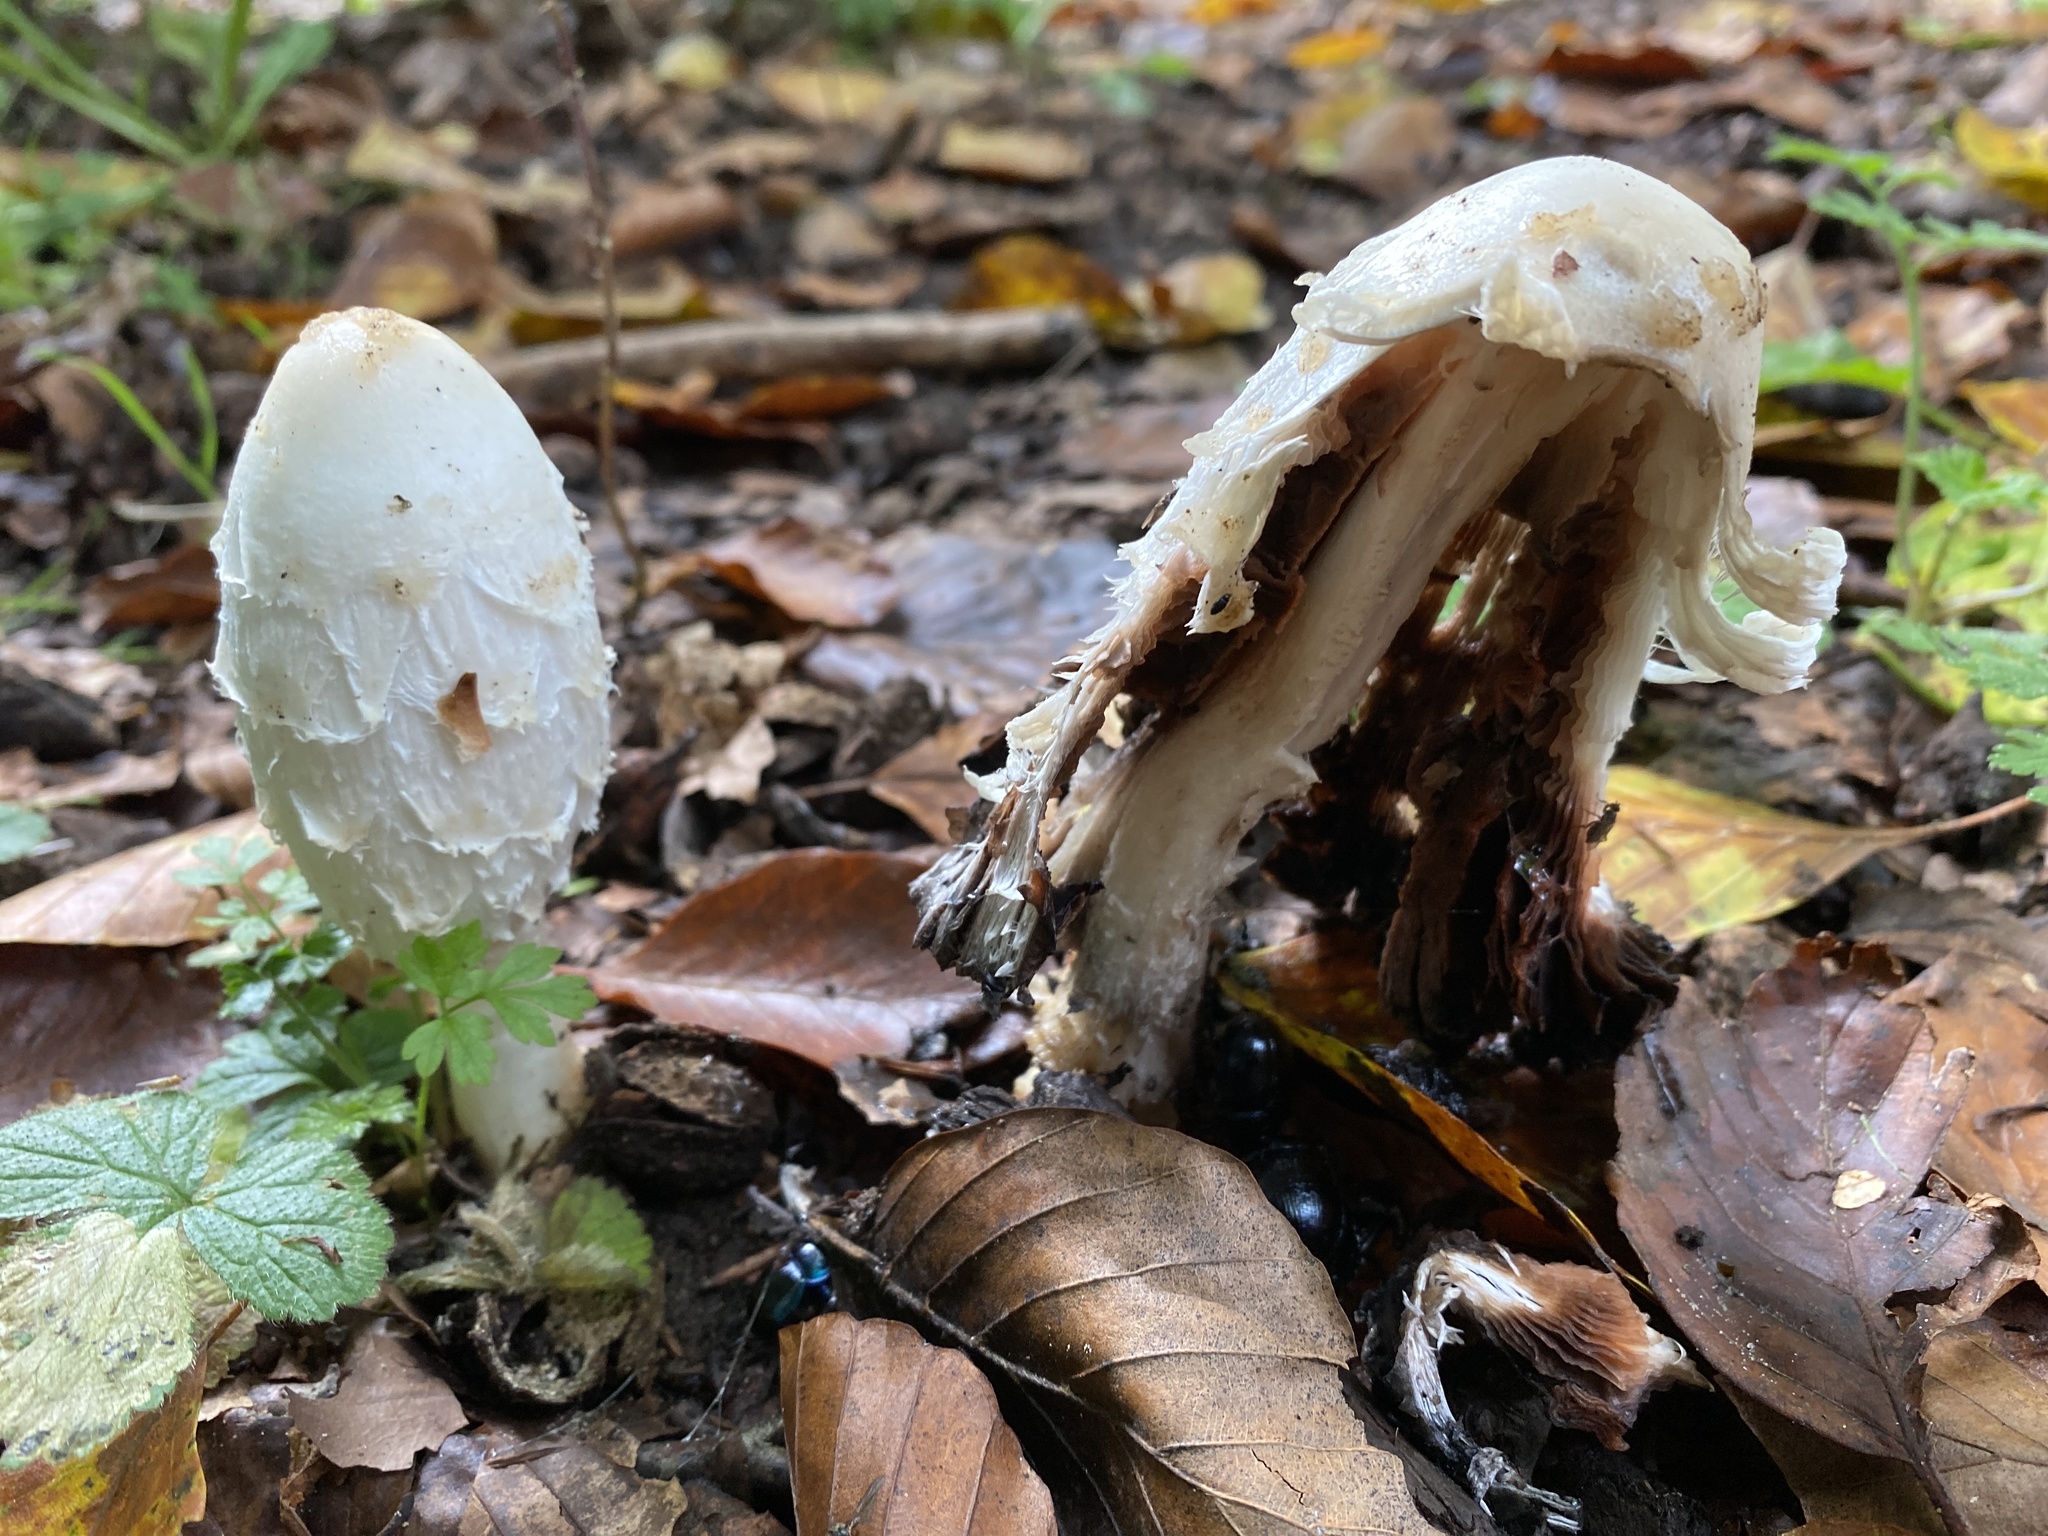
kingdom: Fungi
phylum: Basidiomycota
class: Agaricomycetes
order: Agaricales
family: Agaricaceae
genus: Coprinus
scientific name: Coprinus comatus
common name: Lawyer's wig
